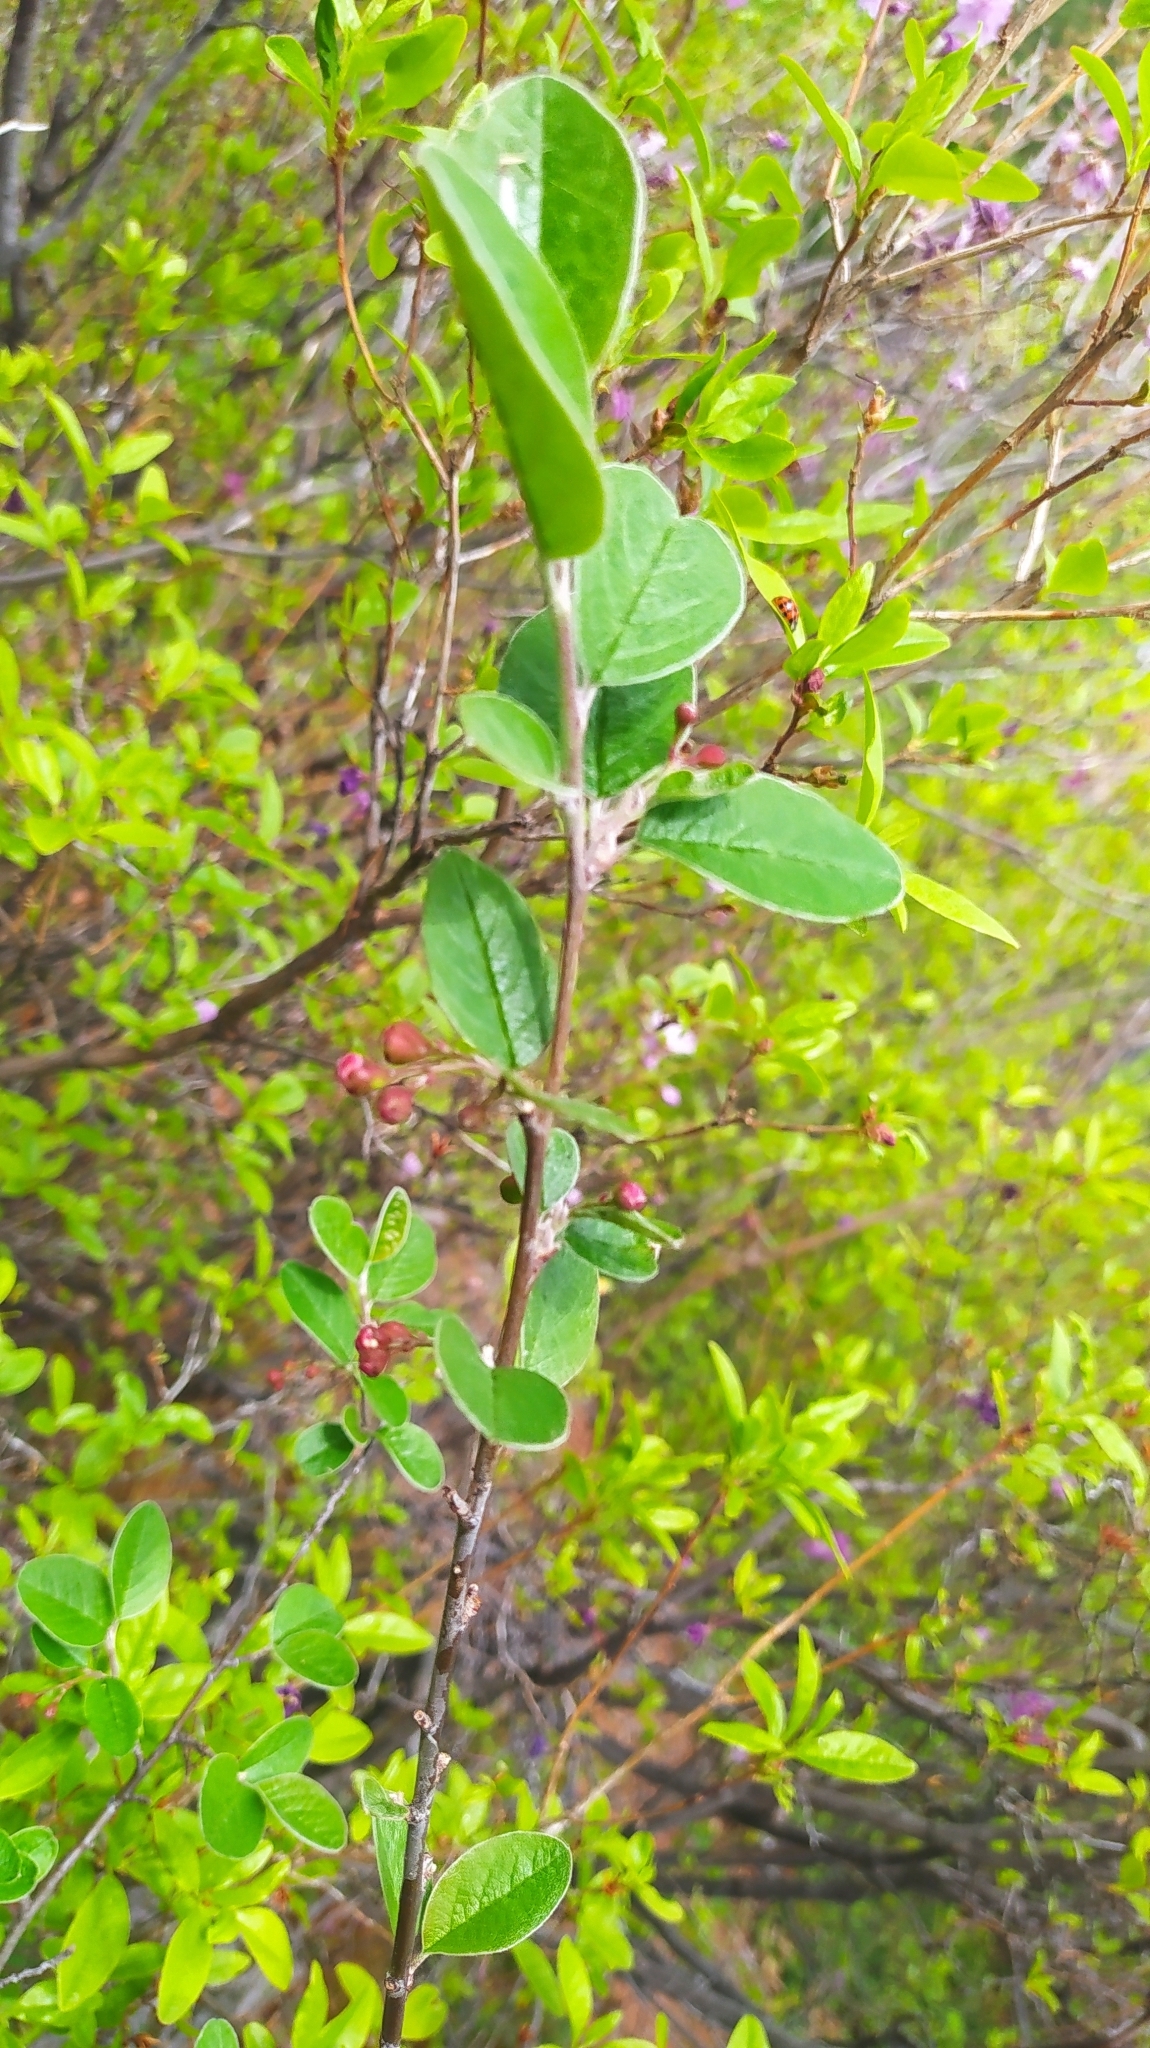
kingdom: Plantae
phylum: Tracheophyta
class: Magnoliopsida
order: Rosales
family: Rosaceae
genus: Cotoneaster
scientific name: Cotoneaster melanocarpus
